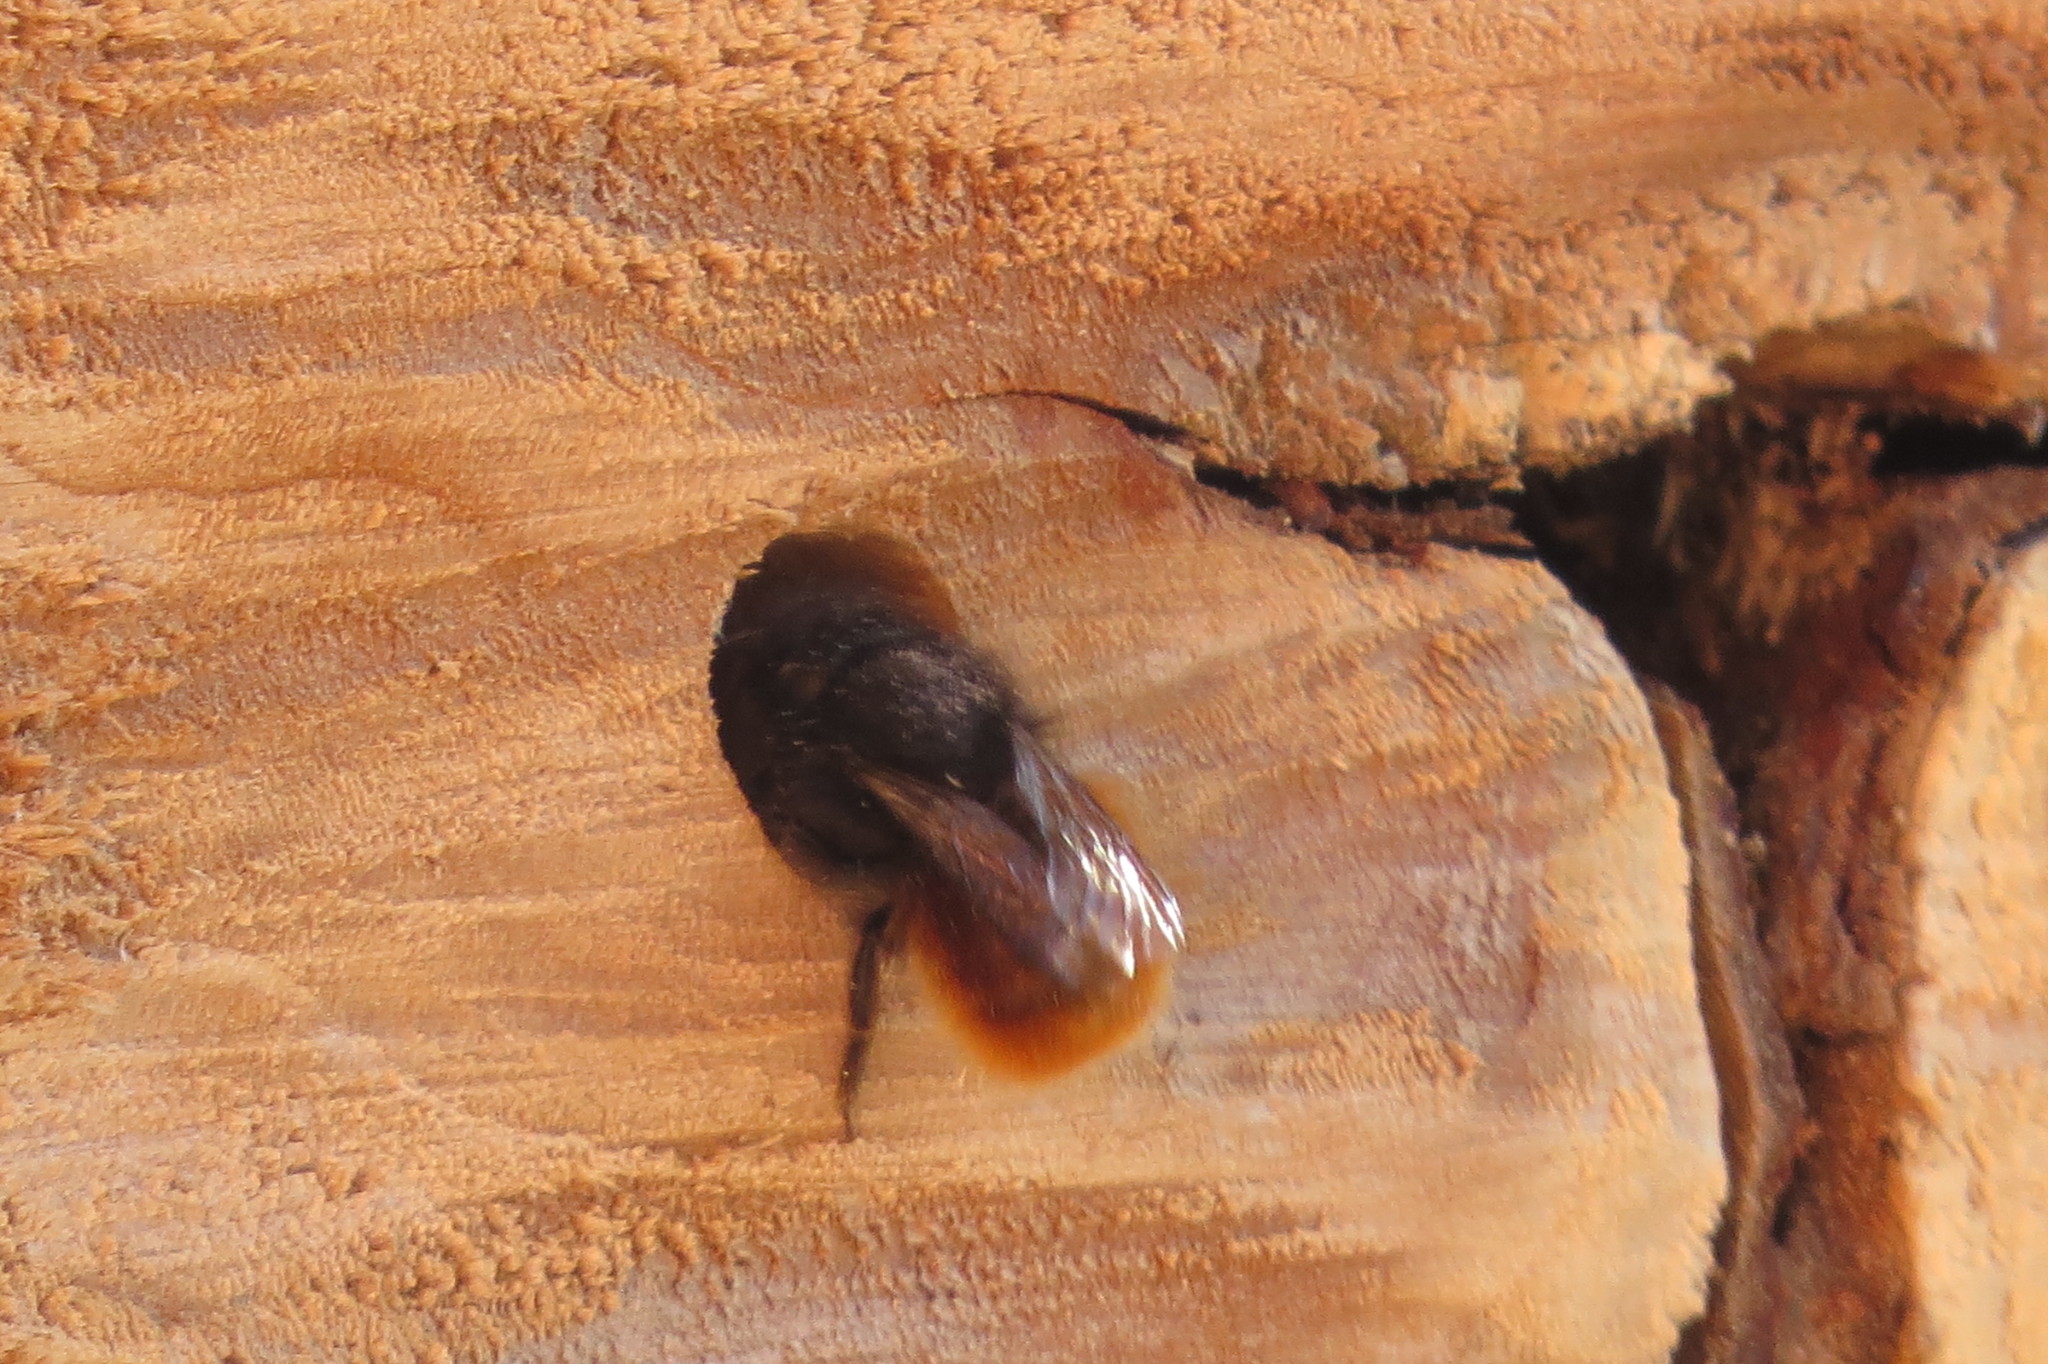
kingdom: Animalia
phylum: Arthropoda
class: Insecta
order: Hymenoptera
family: Megachilidae
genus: Osmia
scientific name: Osmia cornuta
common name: Mason bee
